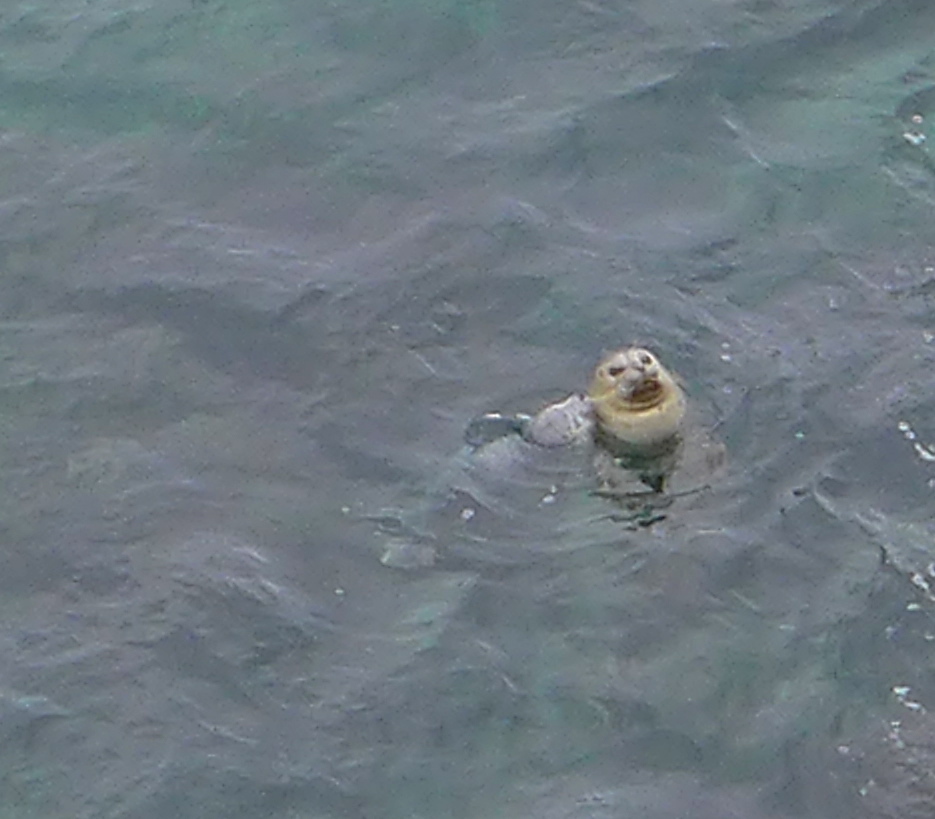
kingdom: Animalia
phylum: Chordata
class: Mammalia
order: Carnivora
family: Phocidae
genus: Phoca
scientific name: Phoca vitulina
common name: Harbor seal
